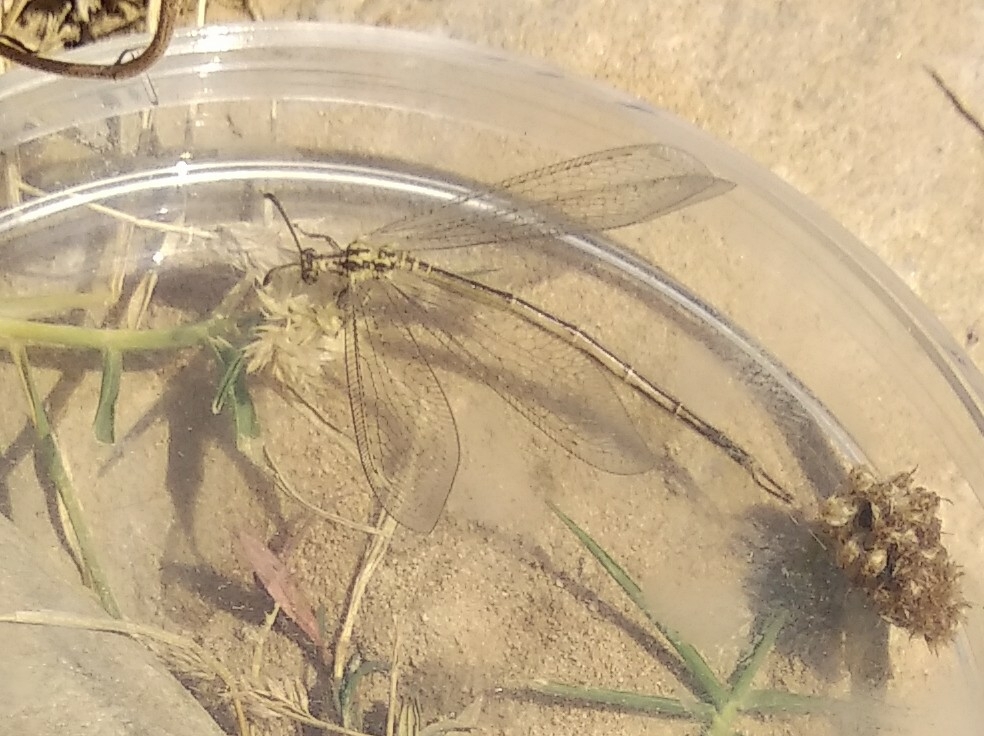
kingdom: Animalia
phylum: Arthropoda
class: Insecta
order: Neuroptera
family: Myrmeleontidae
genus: Macronemurus
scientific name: Macronemurus appendiculatus
